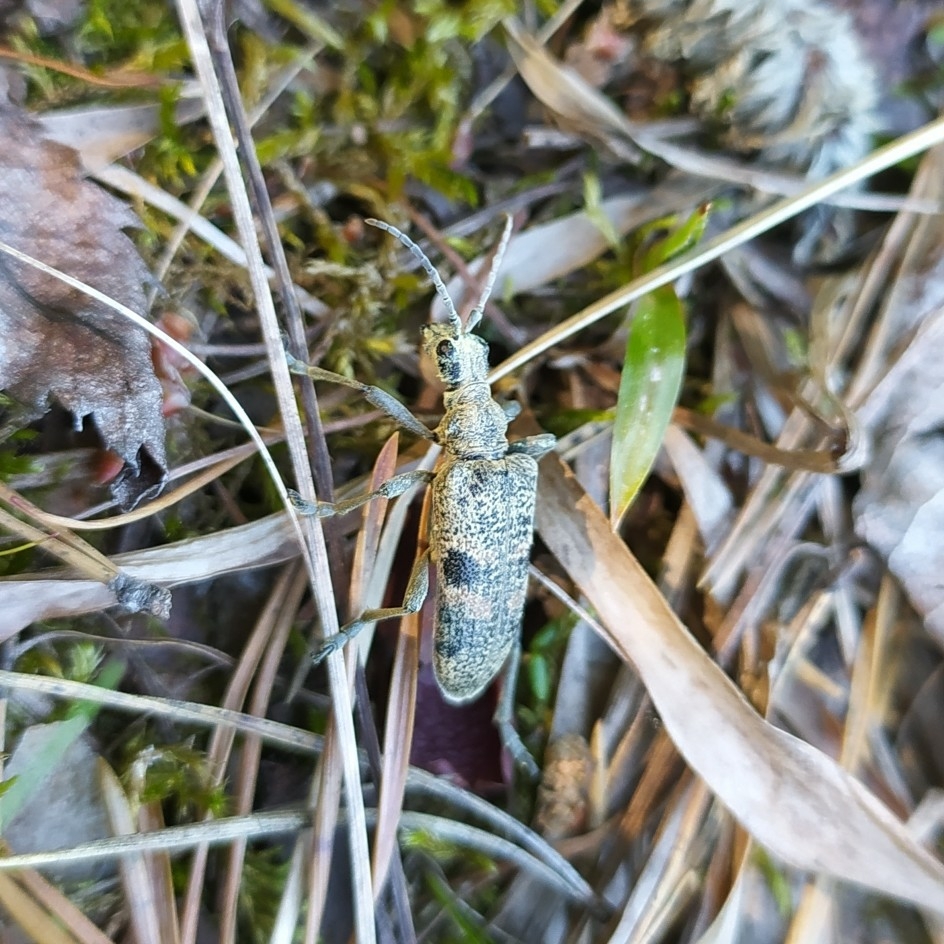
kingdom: Animalia
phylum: Arthropoda
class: Insecta
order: Coleoptera
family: Cerambycidae
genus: Rhagium
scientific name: Rhagium mordax
